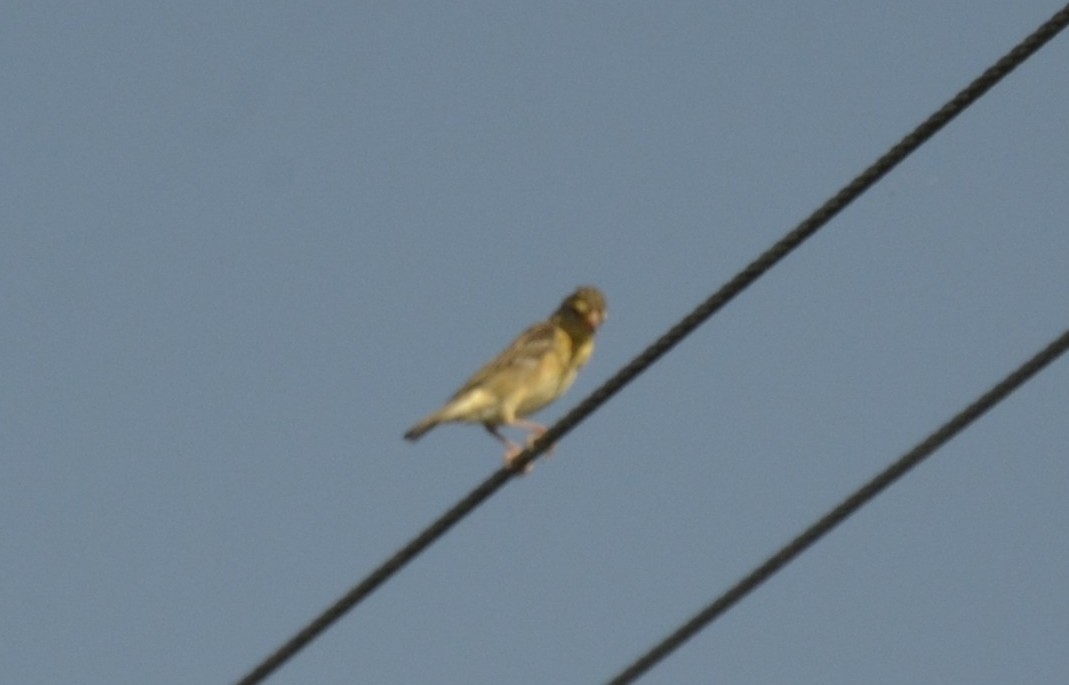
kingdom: Animalia
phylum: Chordata
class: Aves
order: Passeriformes
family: Ploceidae
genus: Ploceus
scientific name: Ploceus philippinus
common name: Baya weaver
